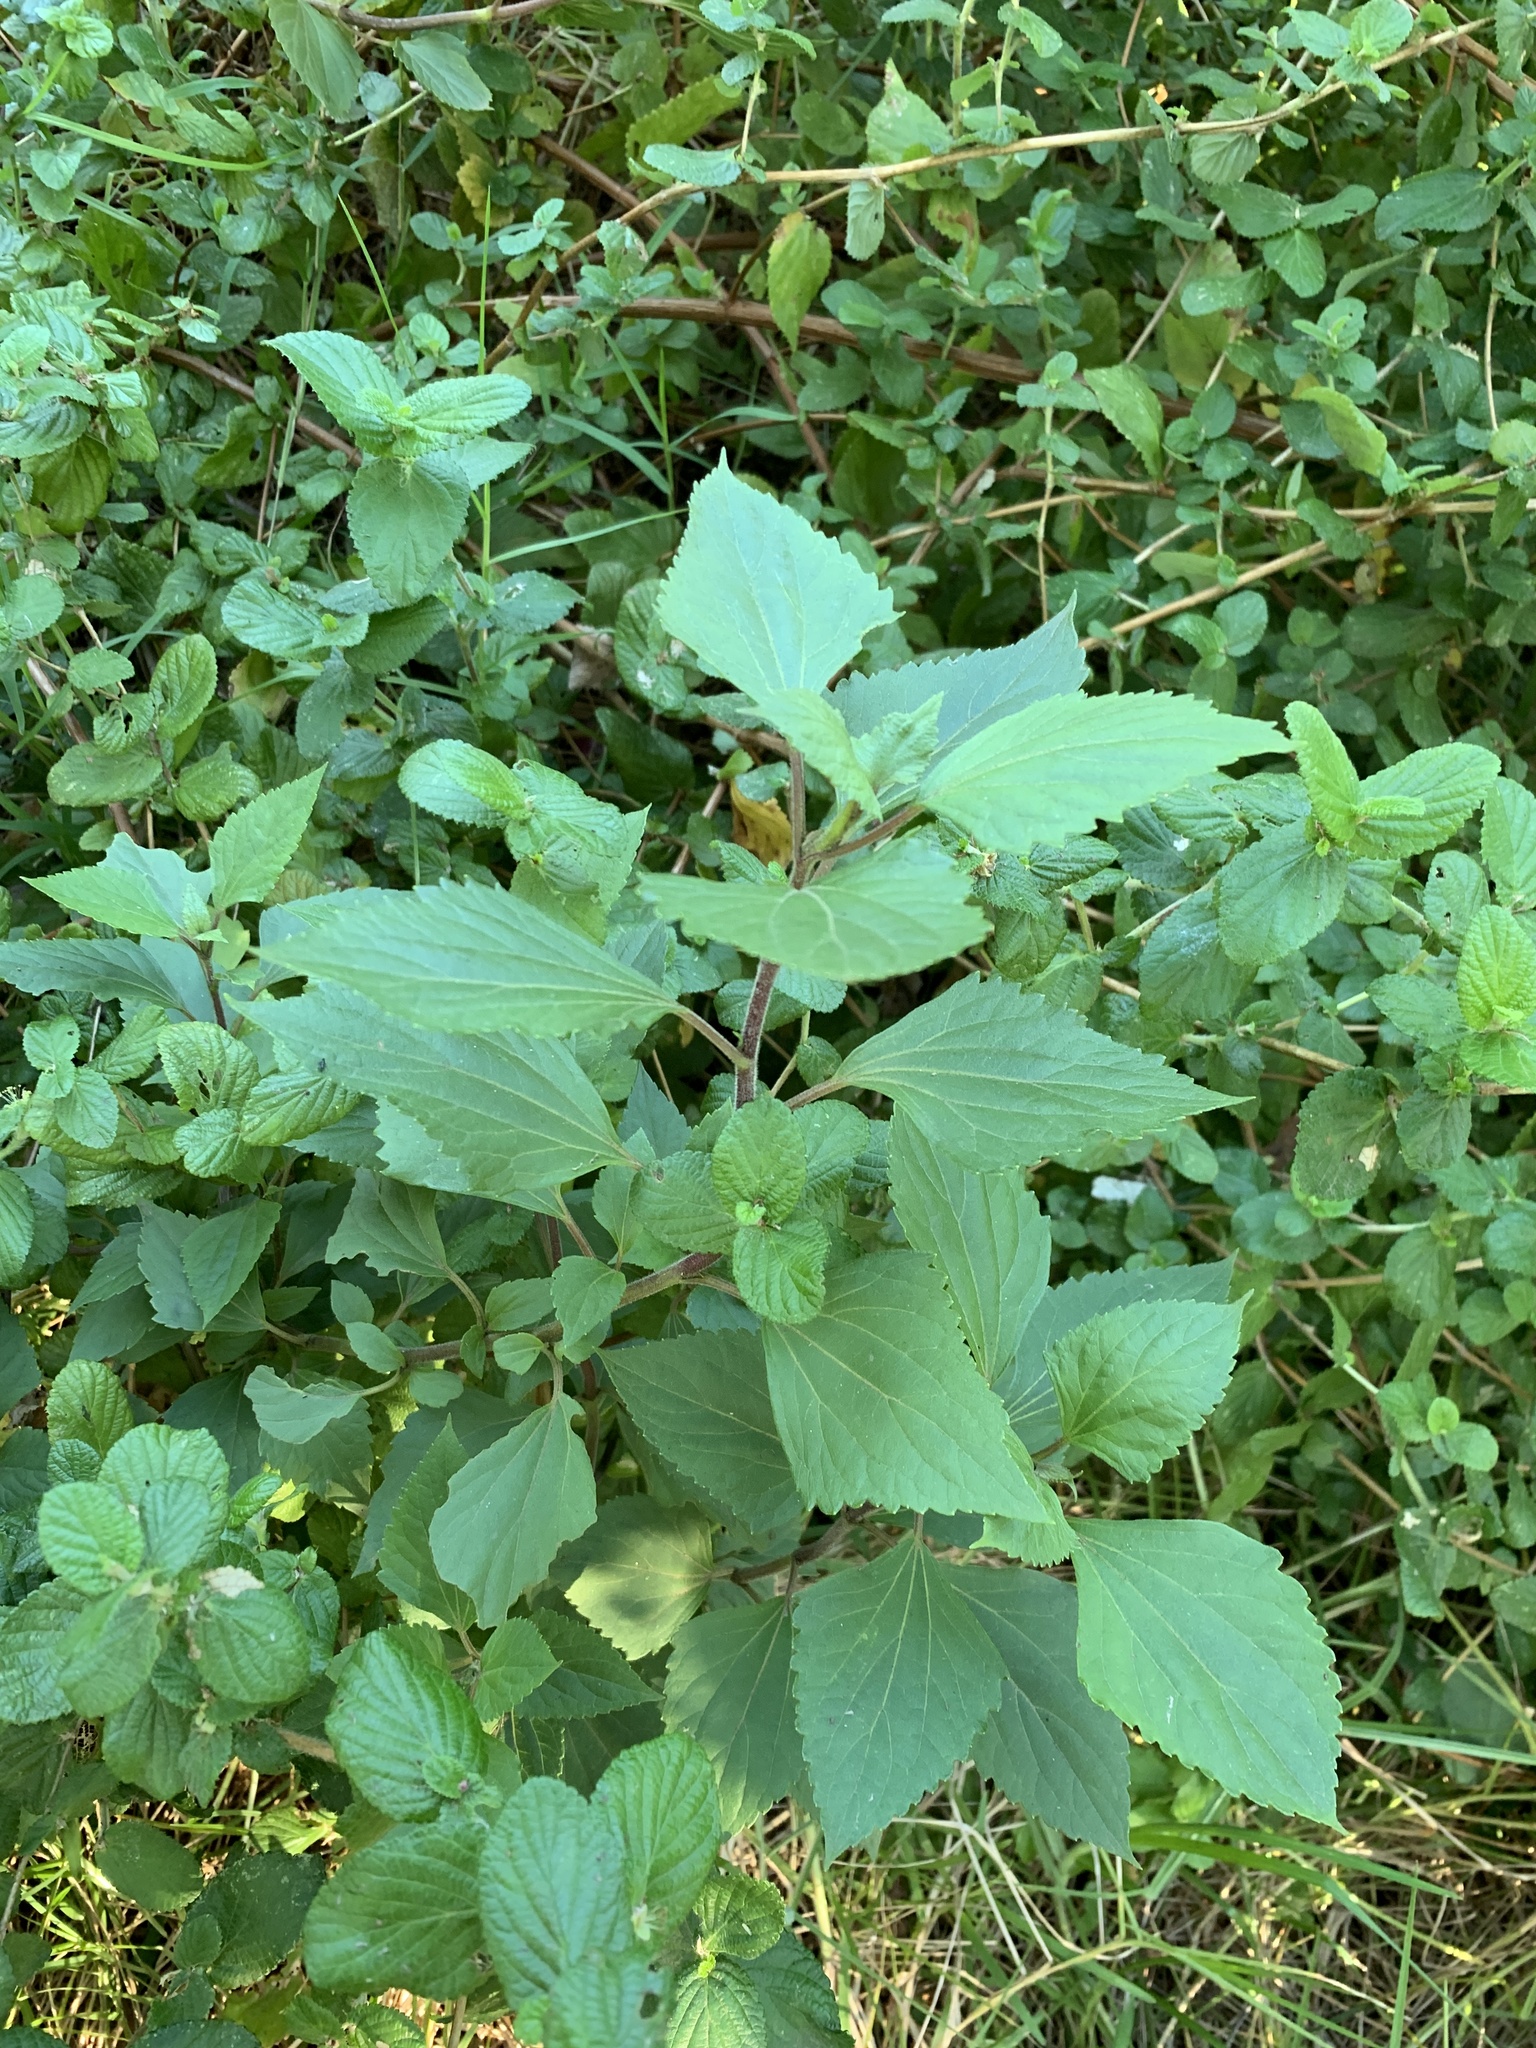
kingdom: Plantae
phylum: Tracheophyta
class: Magnoliopsida
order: Asterales
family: Asteraceae
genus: Ageratina
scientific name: Ageratina adenophora
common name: Sticky snakeroot
